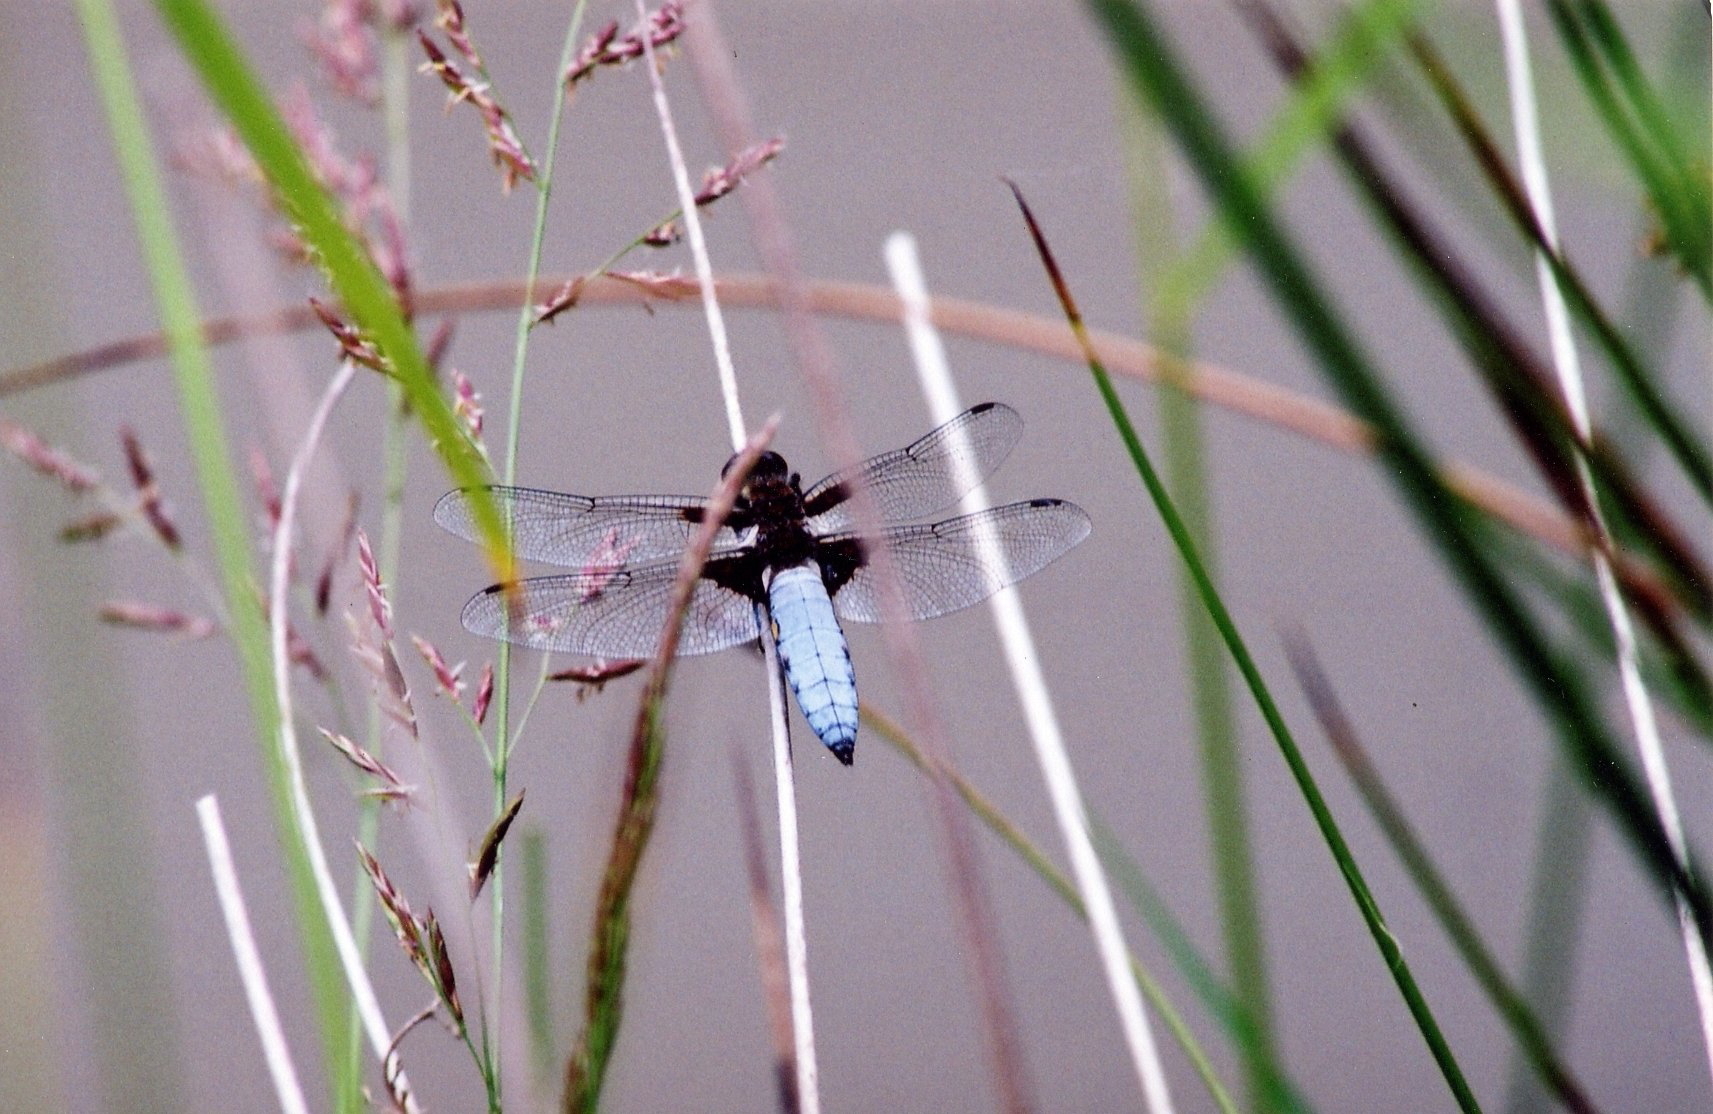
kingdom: Animalia
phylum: Arthropoda
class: Insecta
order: Odonata
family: Libellulidae
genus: Libellula
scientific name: Libellula depressa
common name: Broad-bodied chaser
